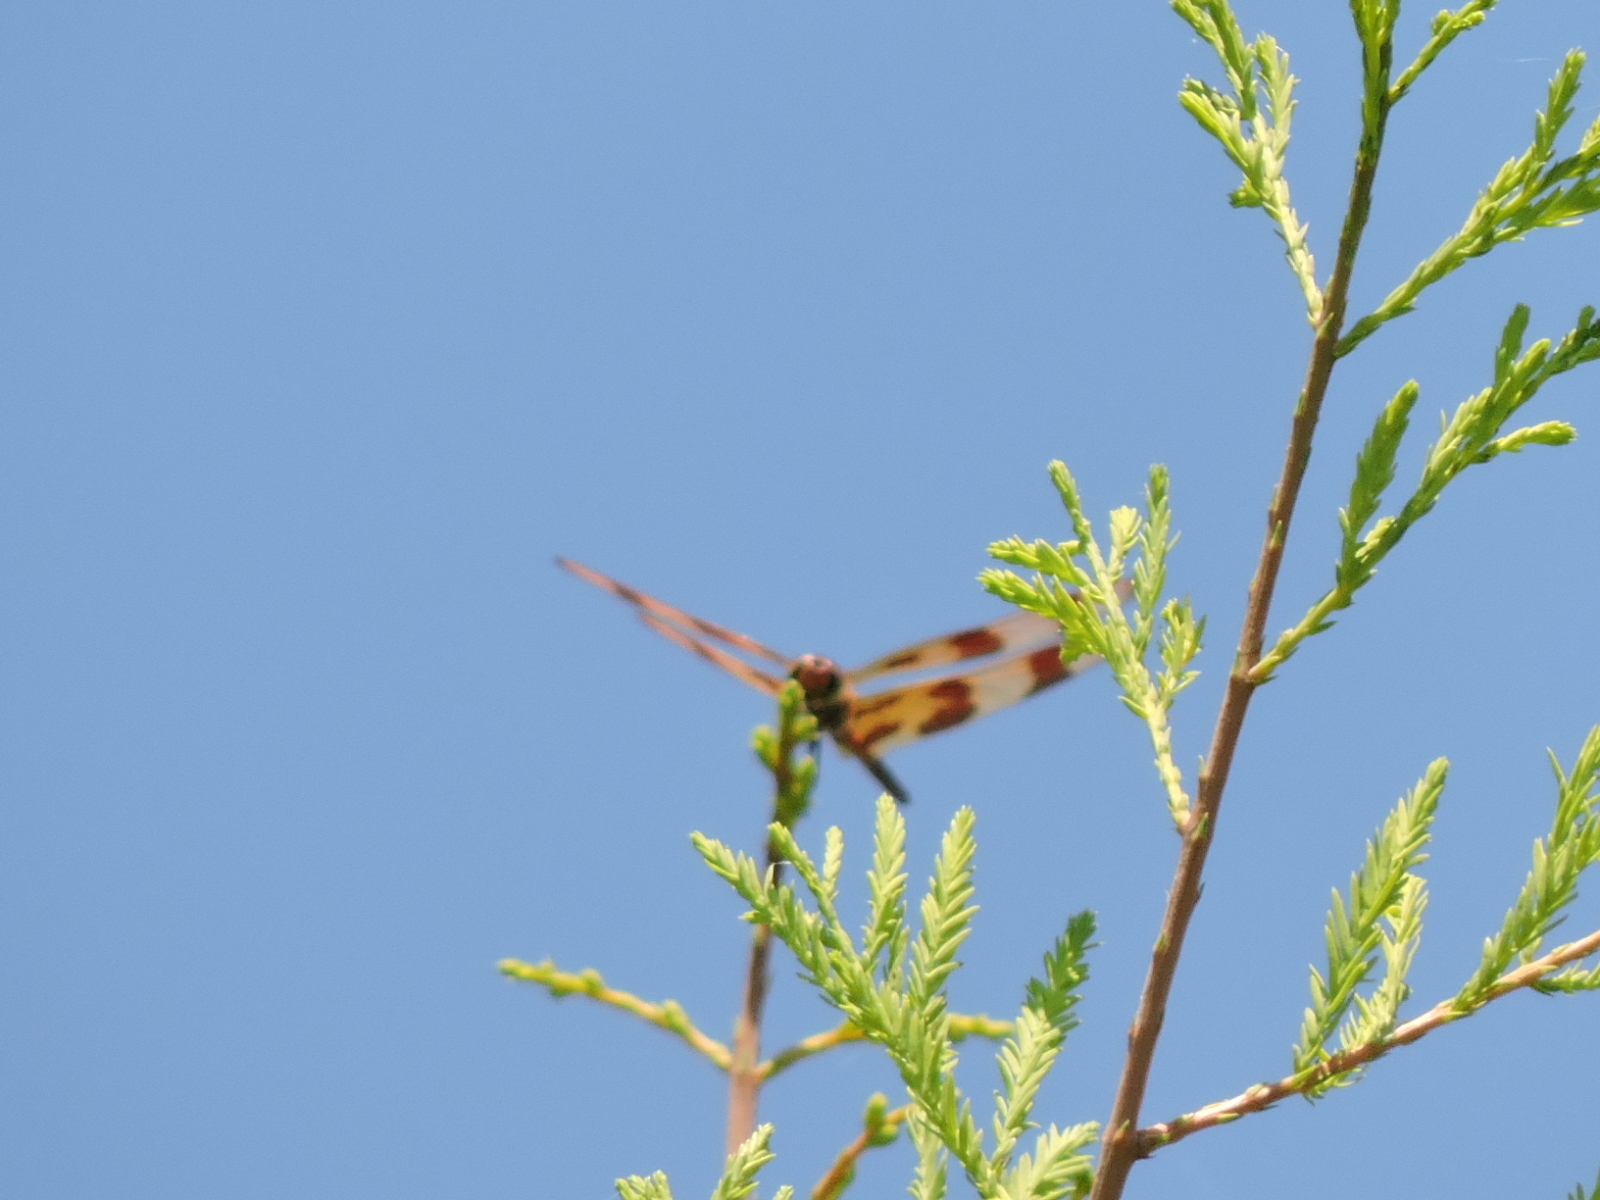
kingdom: Animalia
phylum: Arthropoda
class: Insecta
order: Odonata
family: Libellulidae
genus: Celithemis
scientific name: Celithemis eponina
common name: Halloween pennant
